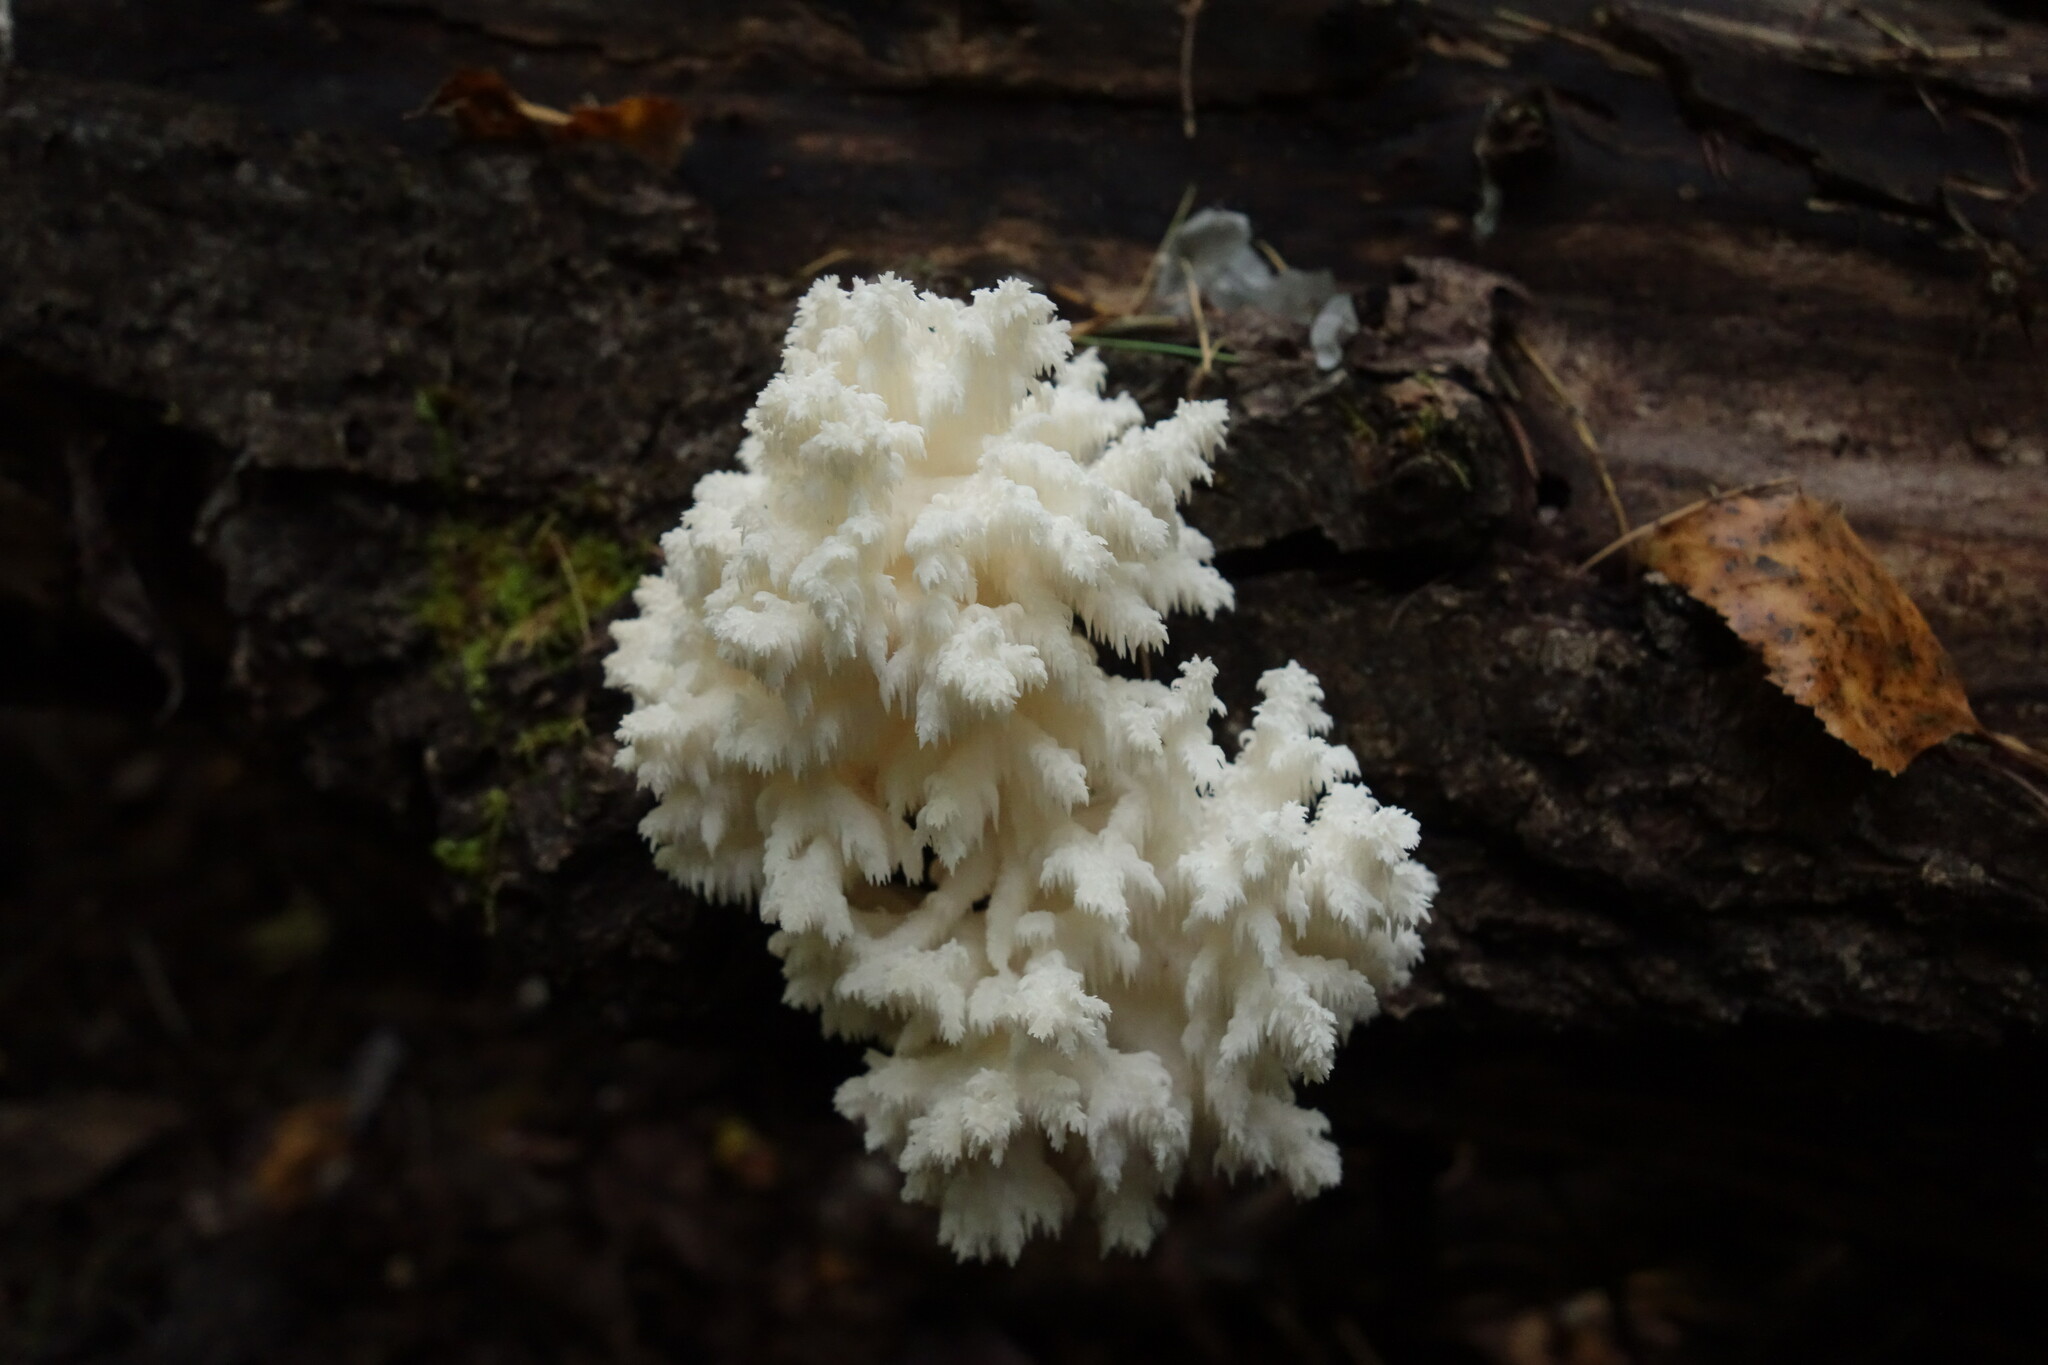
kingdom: Fungi
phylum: Basidiomycota
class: Agaricomycetes
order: Russulales
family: Hericiaceae
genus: Hericium
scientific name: Hericium coralloides
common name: Coral tooth
